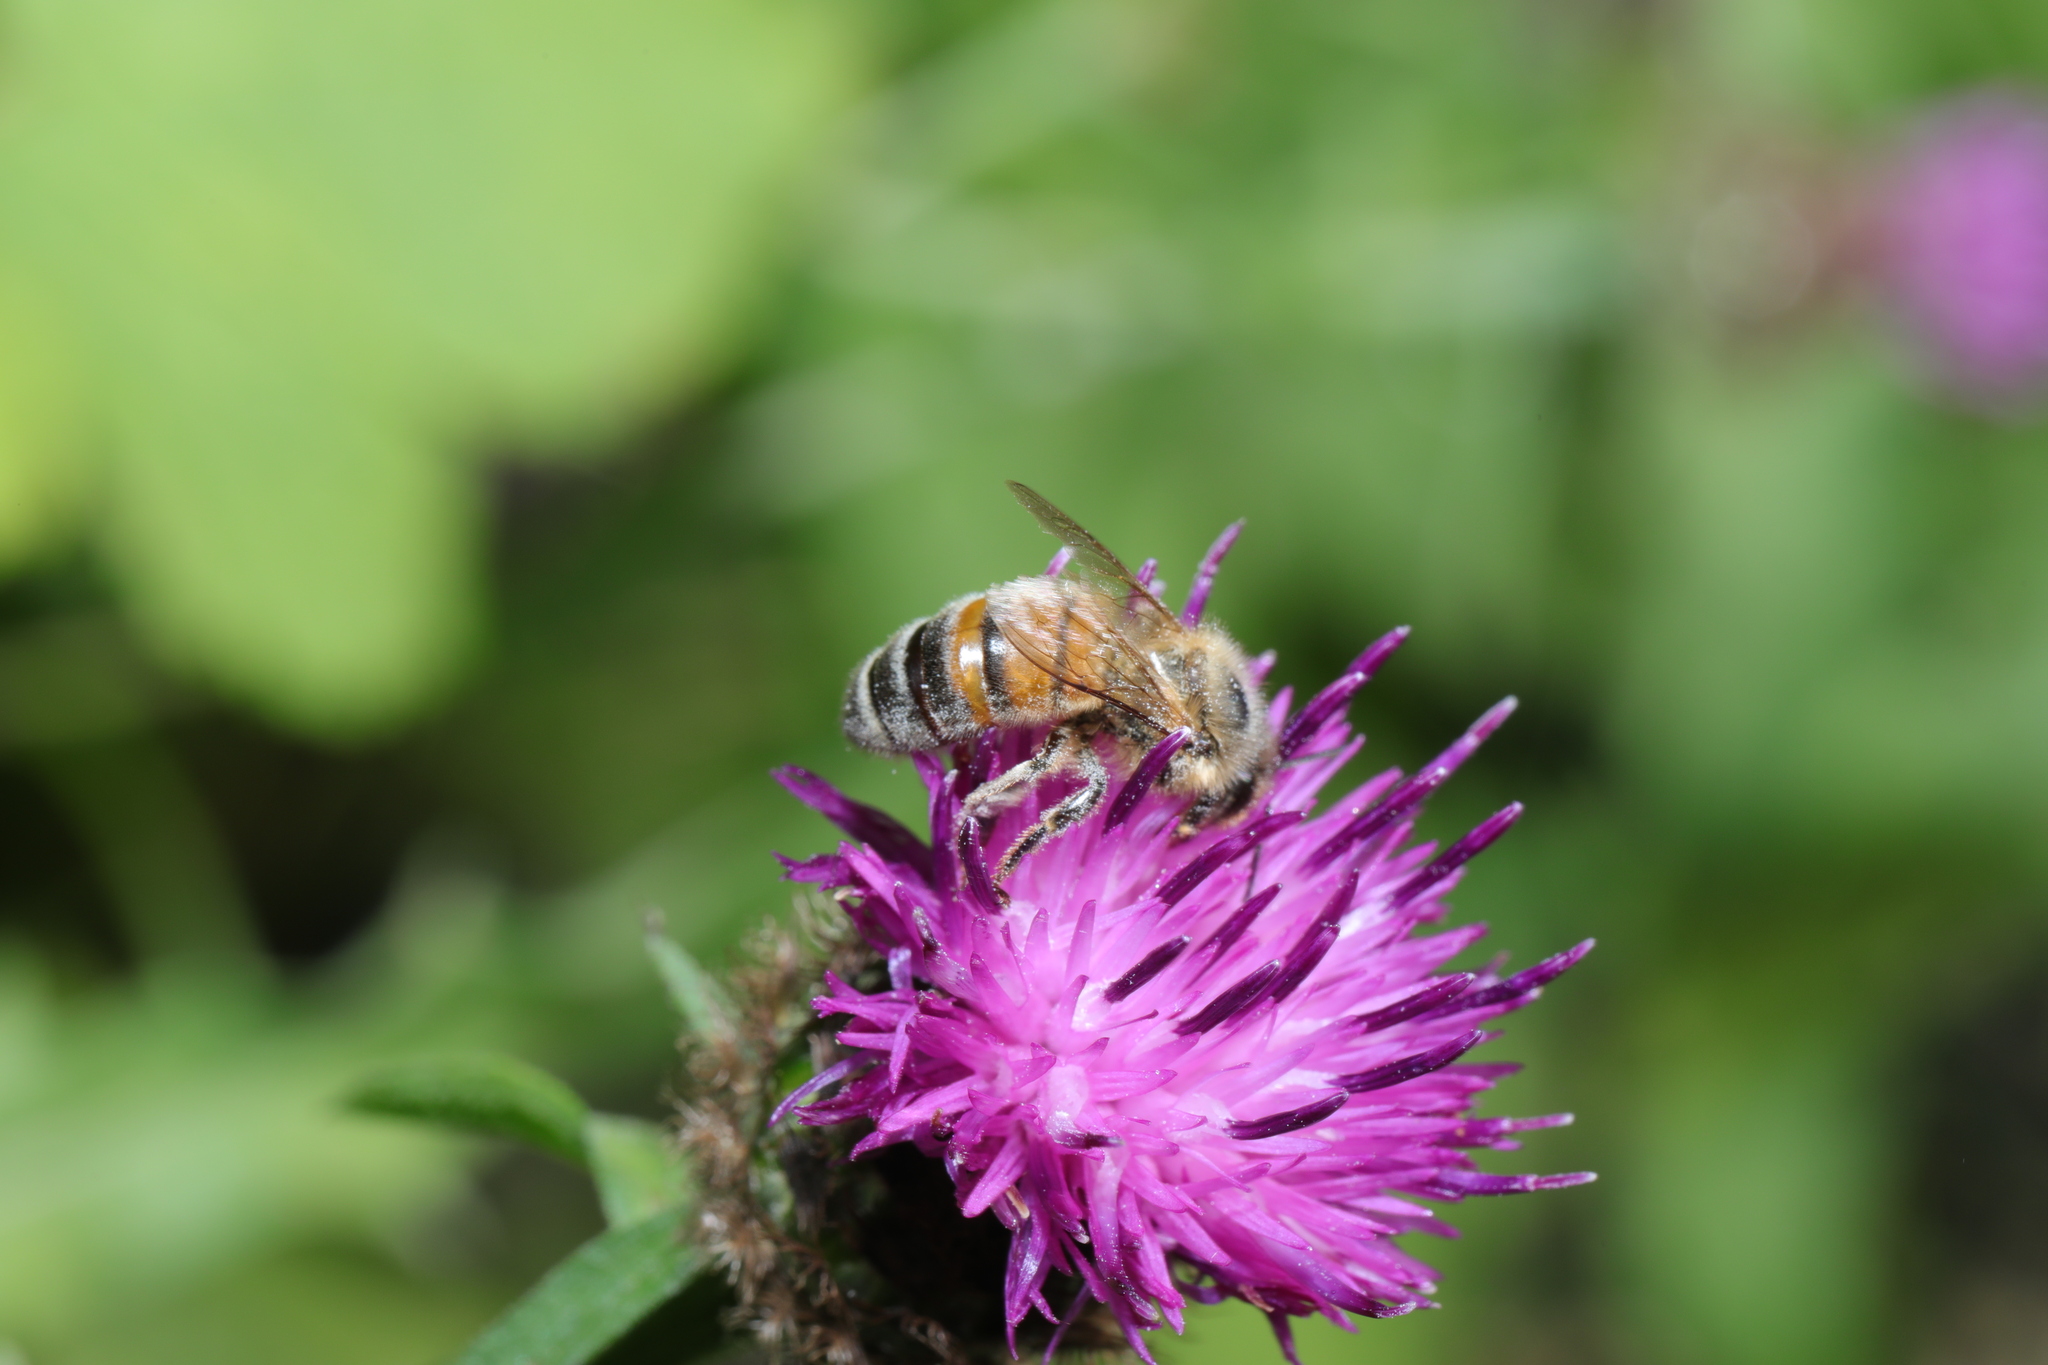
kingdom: Animalia
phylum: Arthropoda
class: Insecta
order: Hymenoptera
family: Apidae
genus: Apis
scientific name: Apis mellifera
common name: Honey bee
